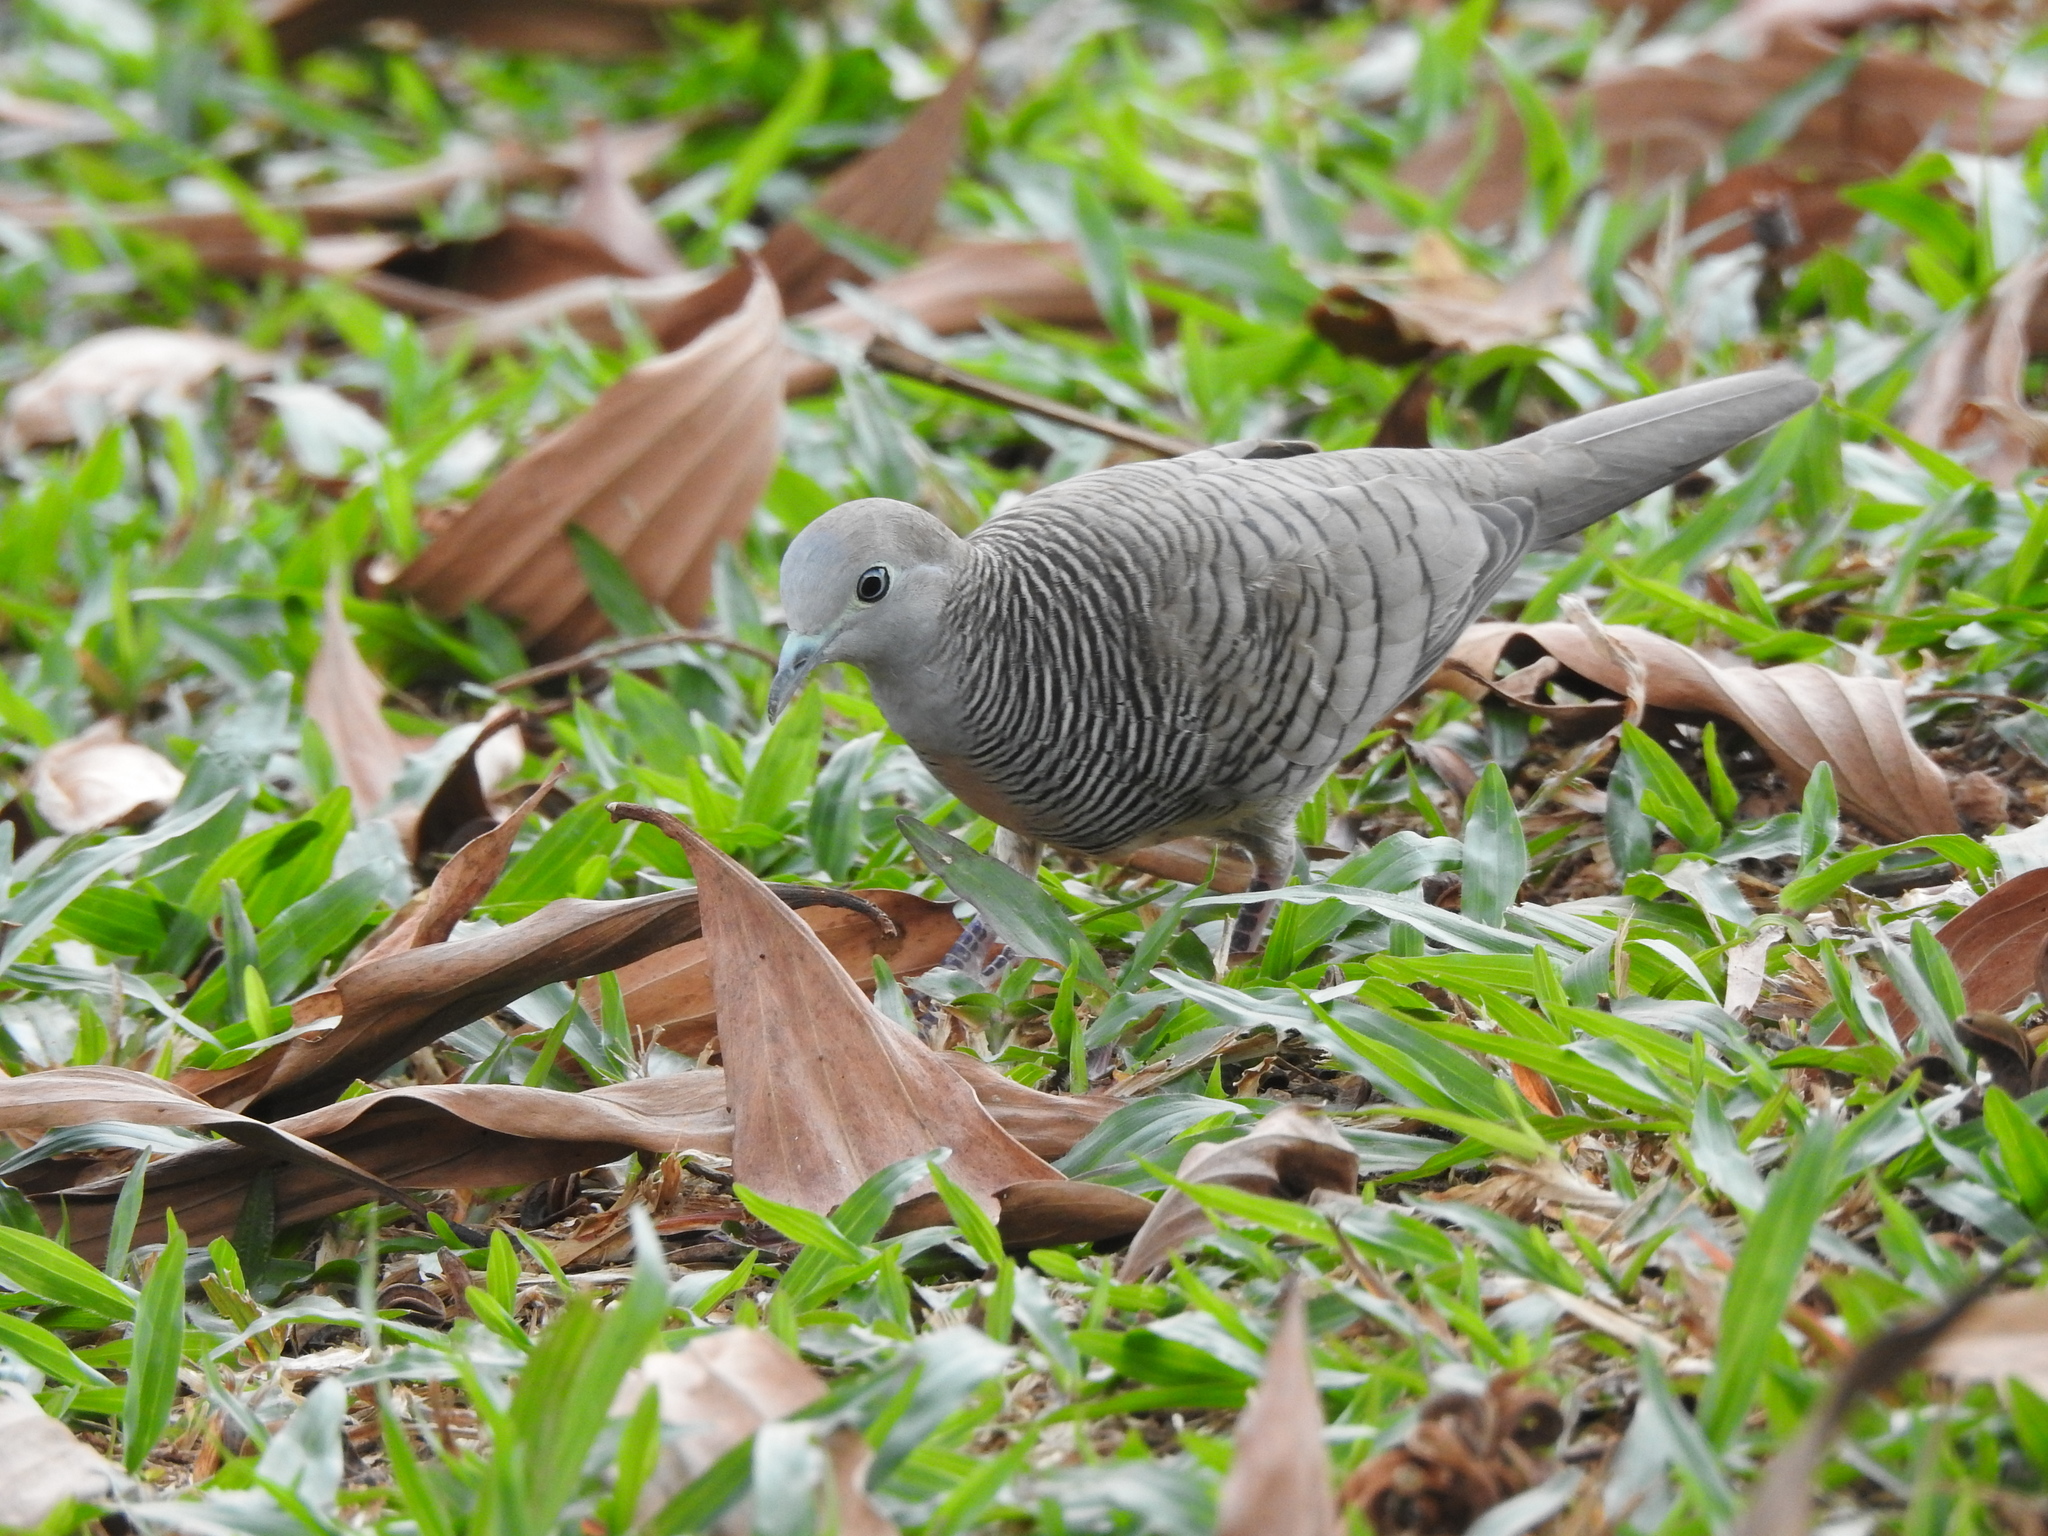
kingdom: Animalia
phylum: Chordata
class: Aves
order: Columbiformes
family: Columbidae
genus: Geopelia
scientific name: Geopelia striata
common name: Zebra dove
